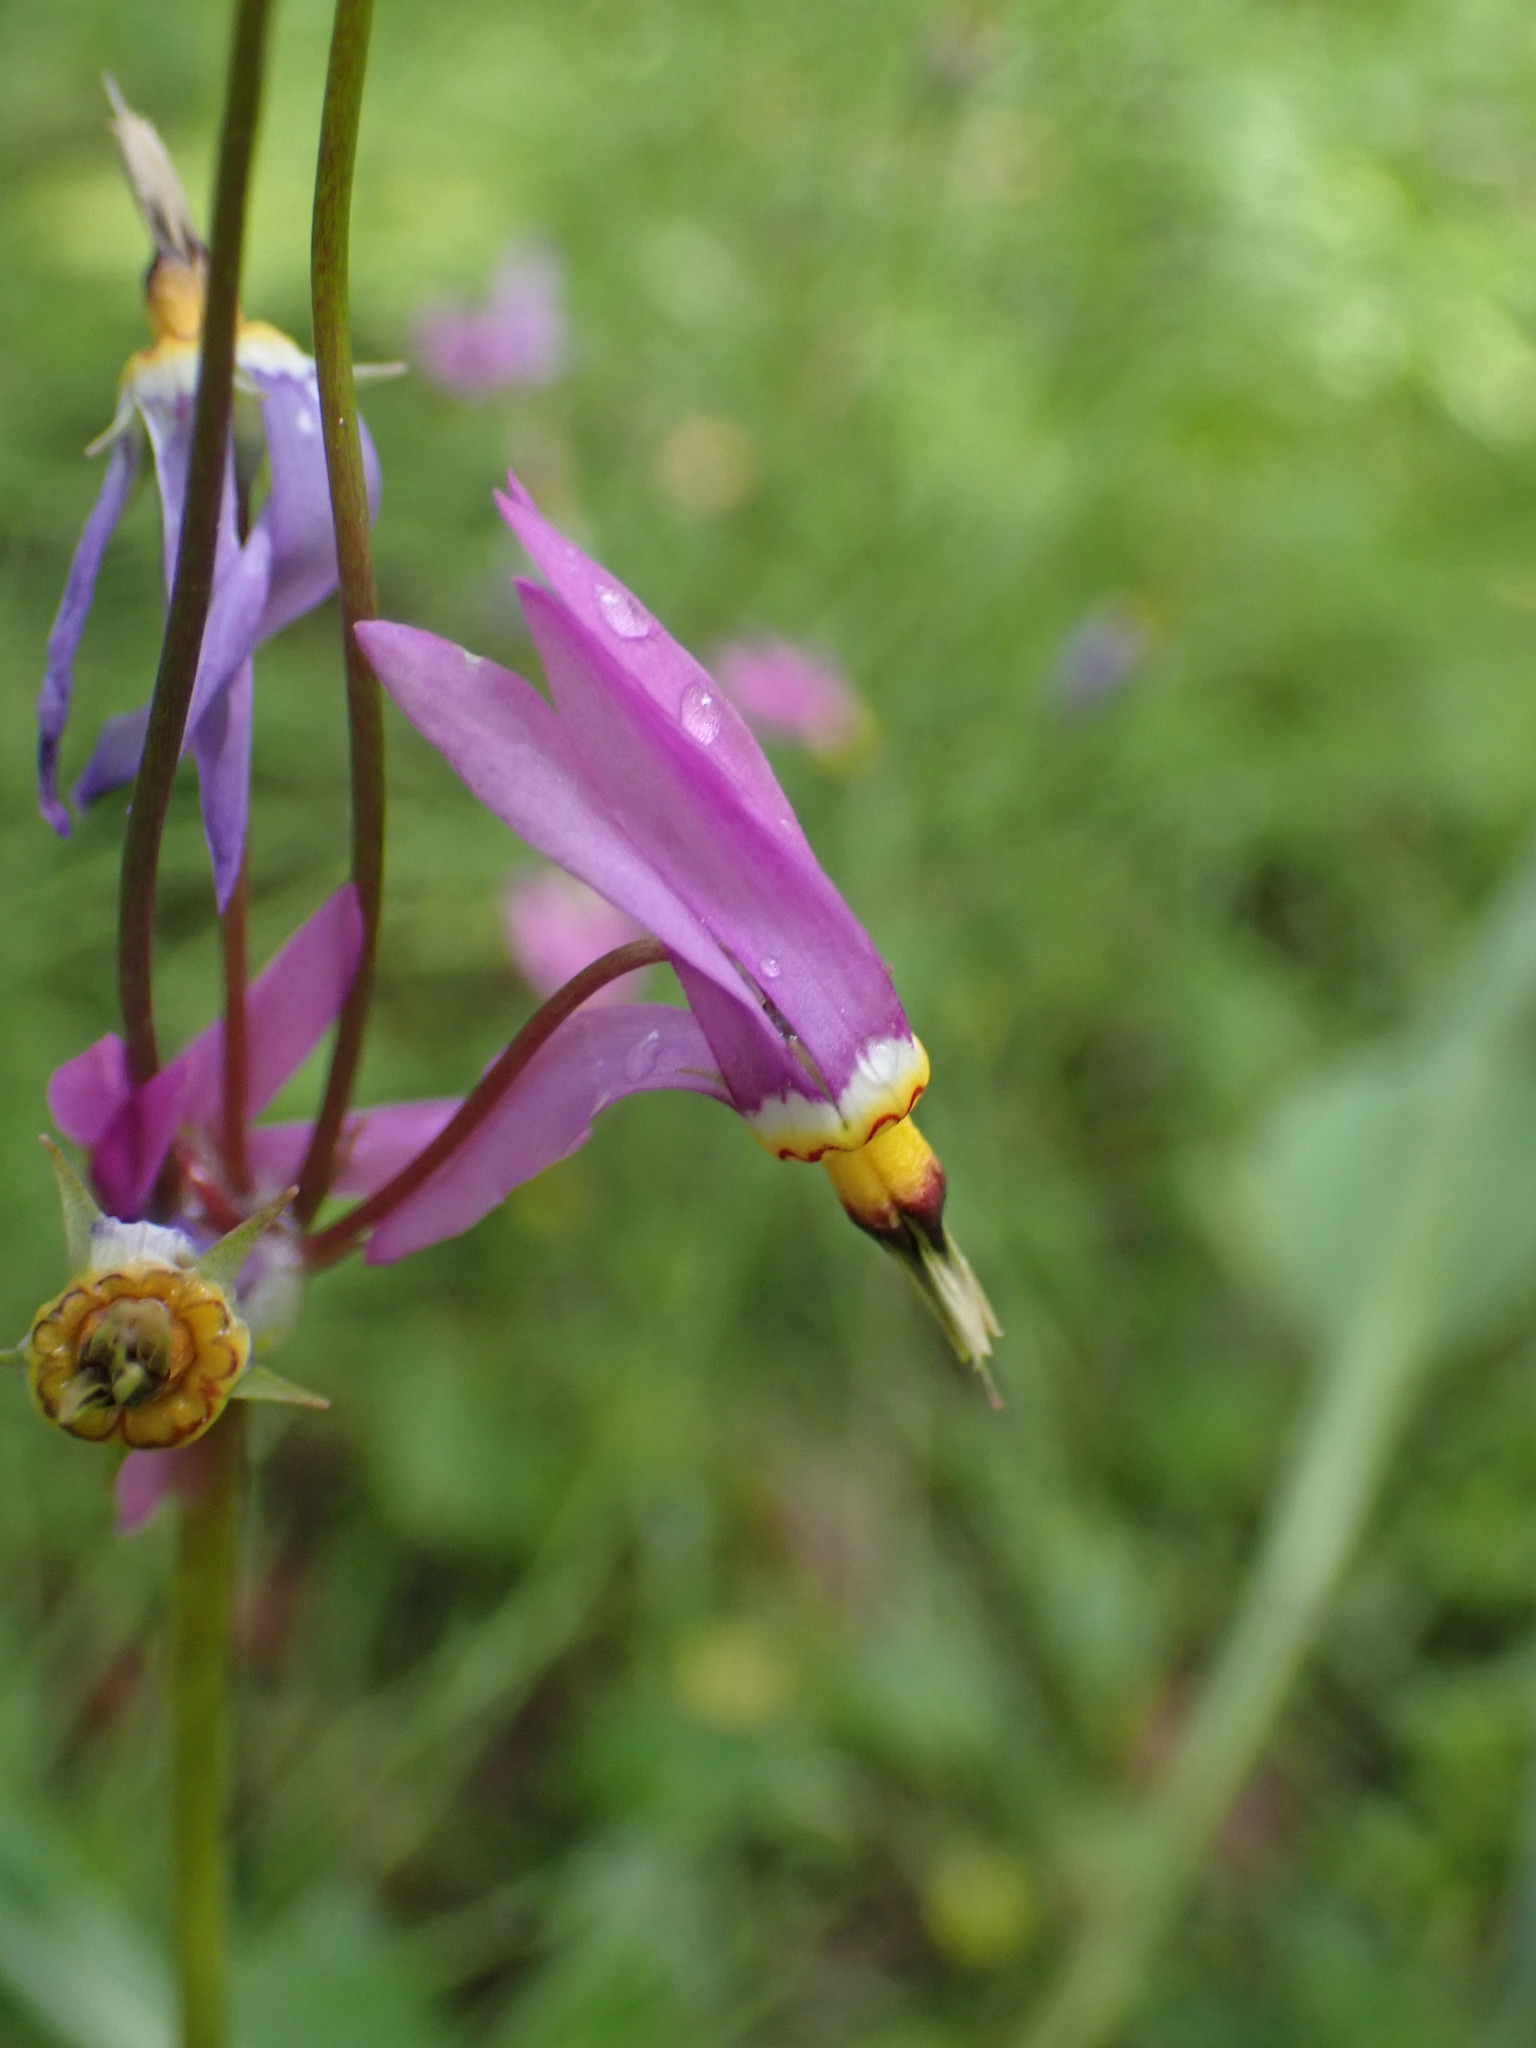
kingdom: Plantae
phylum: Tracheophyta
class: Magnoliopsida
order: Ericales
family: Primulaceae
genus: Dodecatheon
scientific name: Dodecatheon pulchellum
